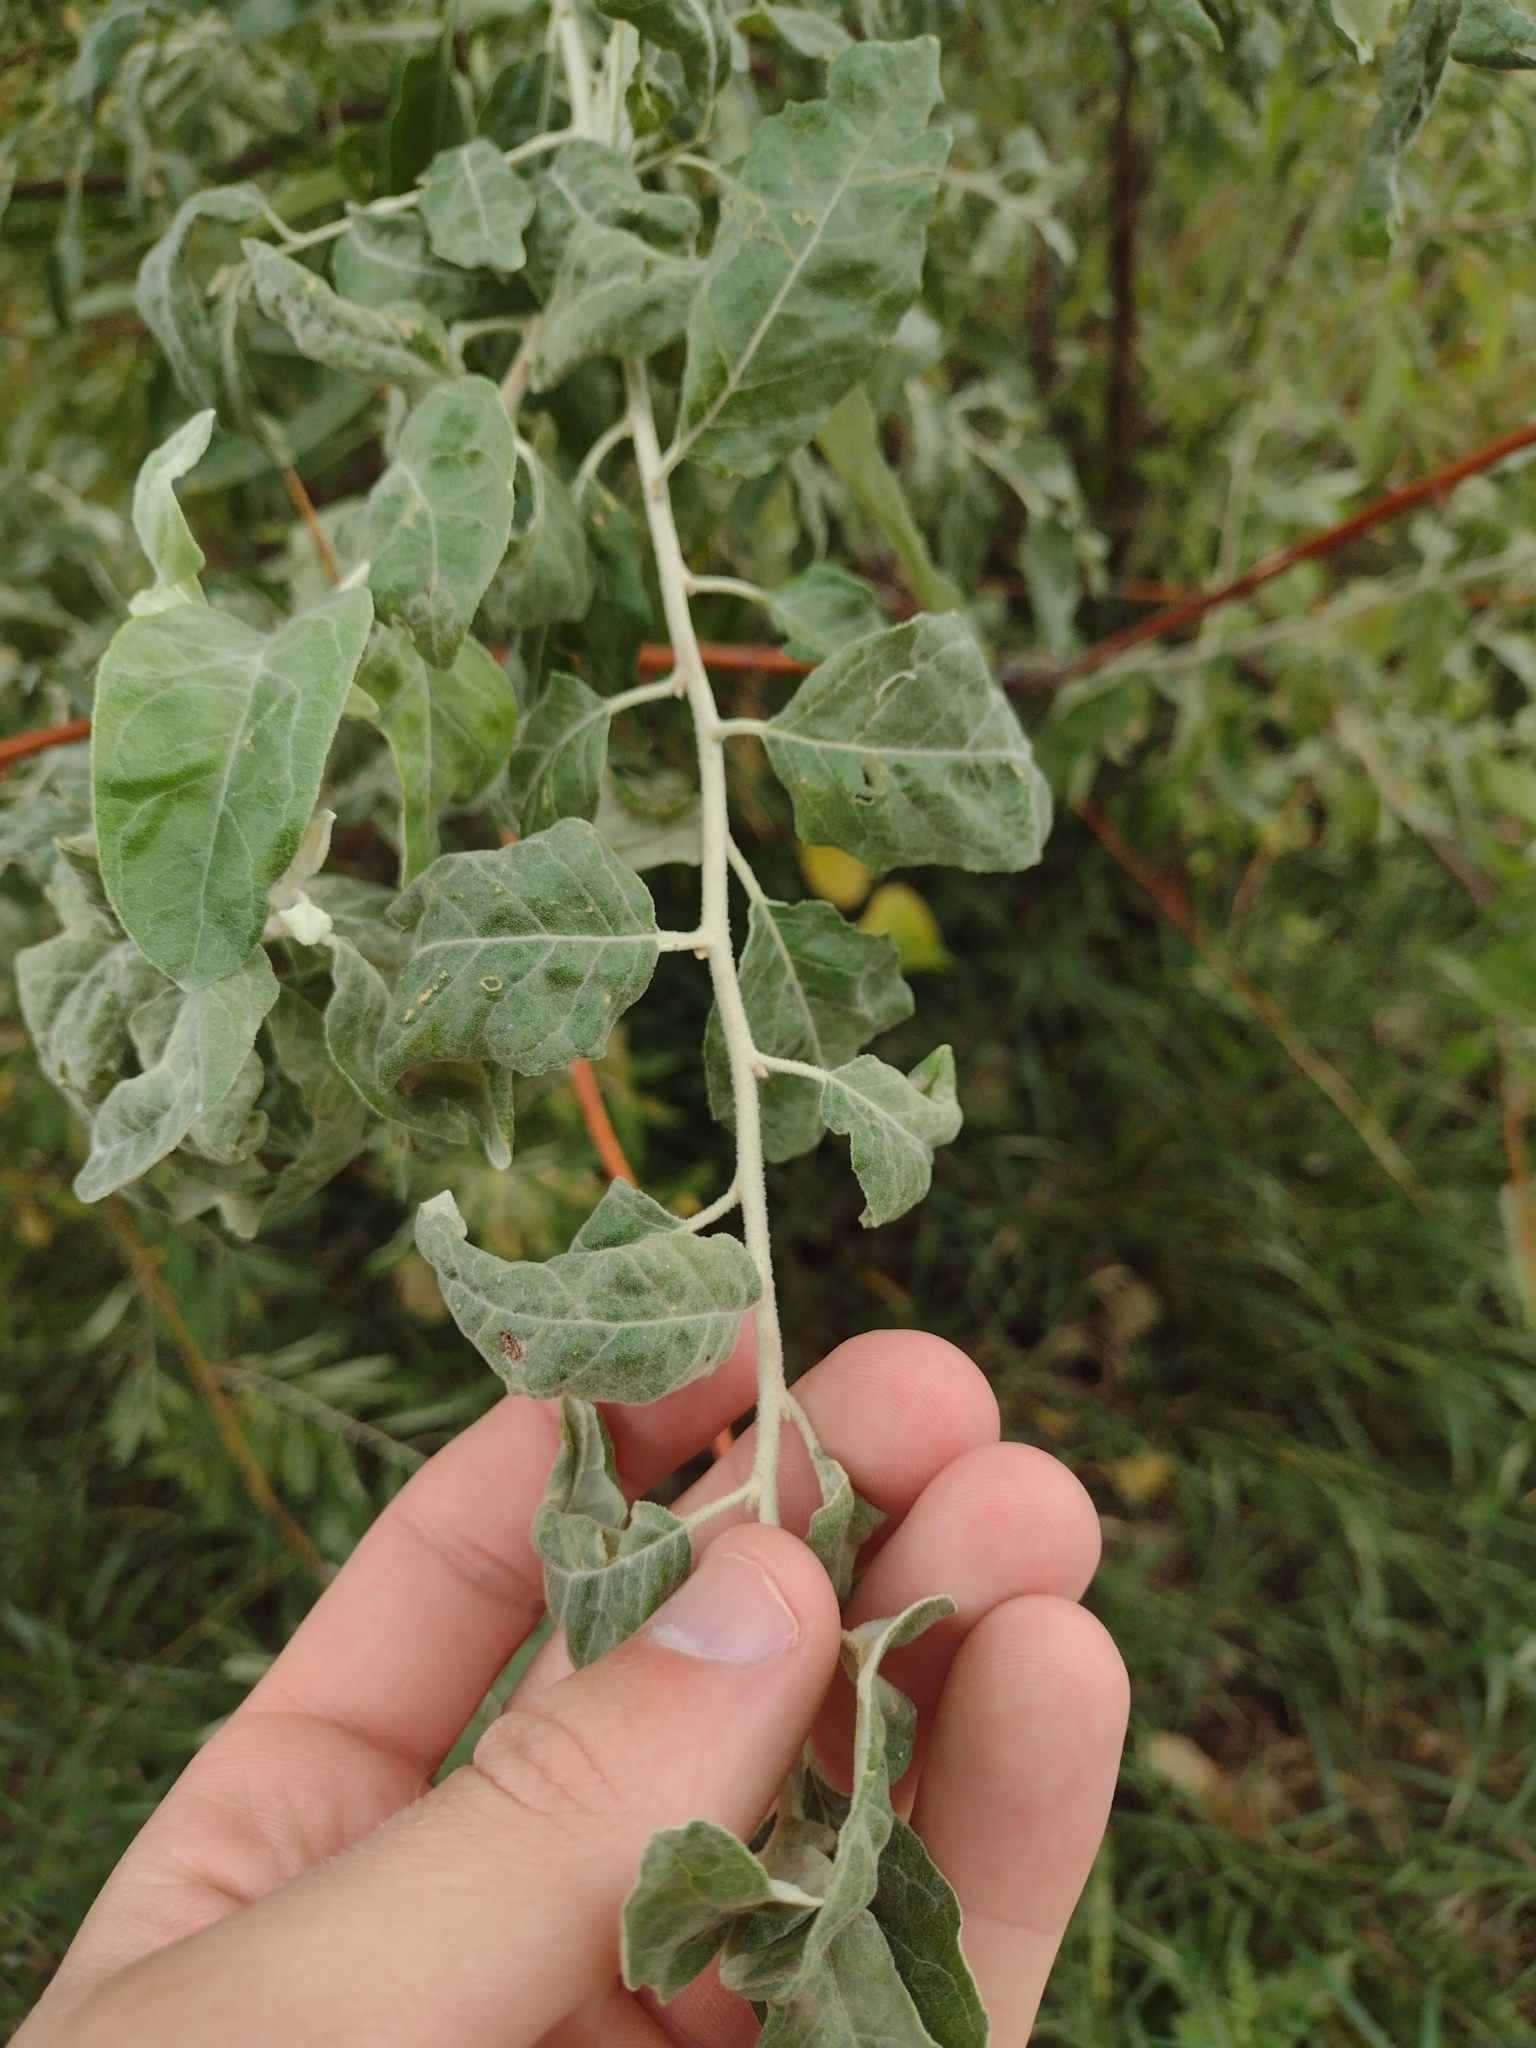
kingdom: Plantae
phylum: Tracheophyta
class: Magnoliopsida
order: Rosales
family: Elaeagnaceae
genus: Elaeagnus
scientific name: Elaeagnus angustifolia
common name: Russian olive
